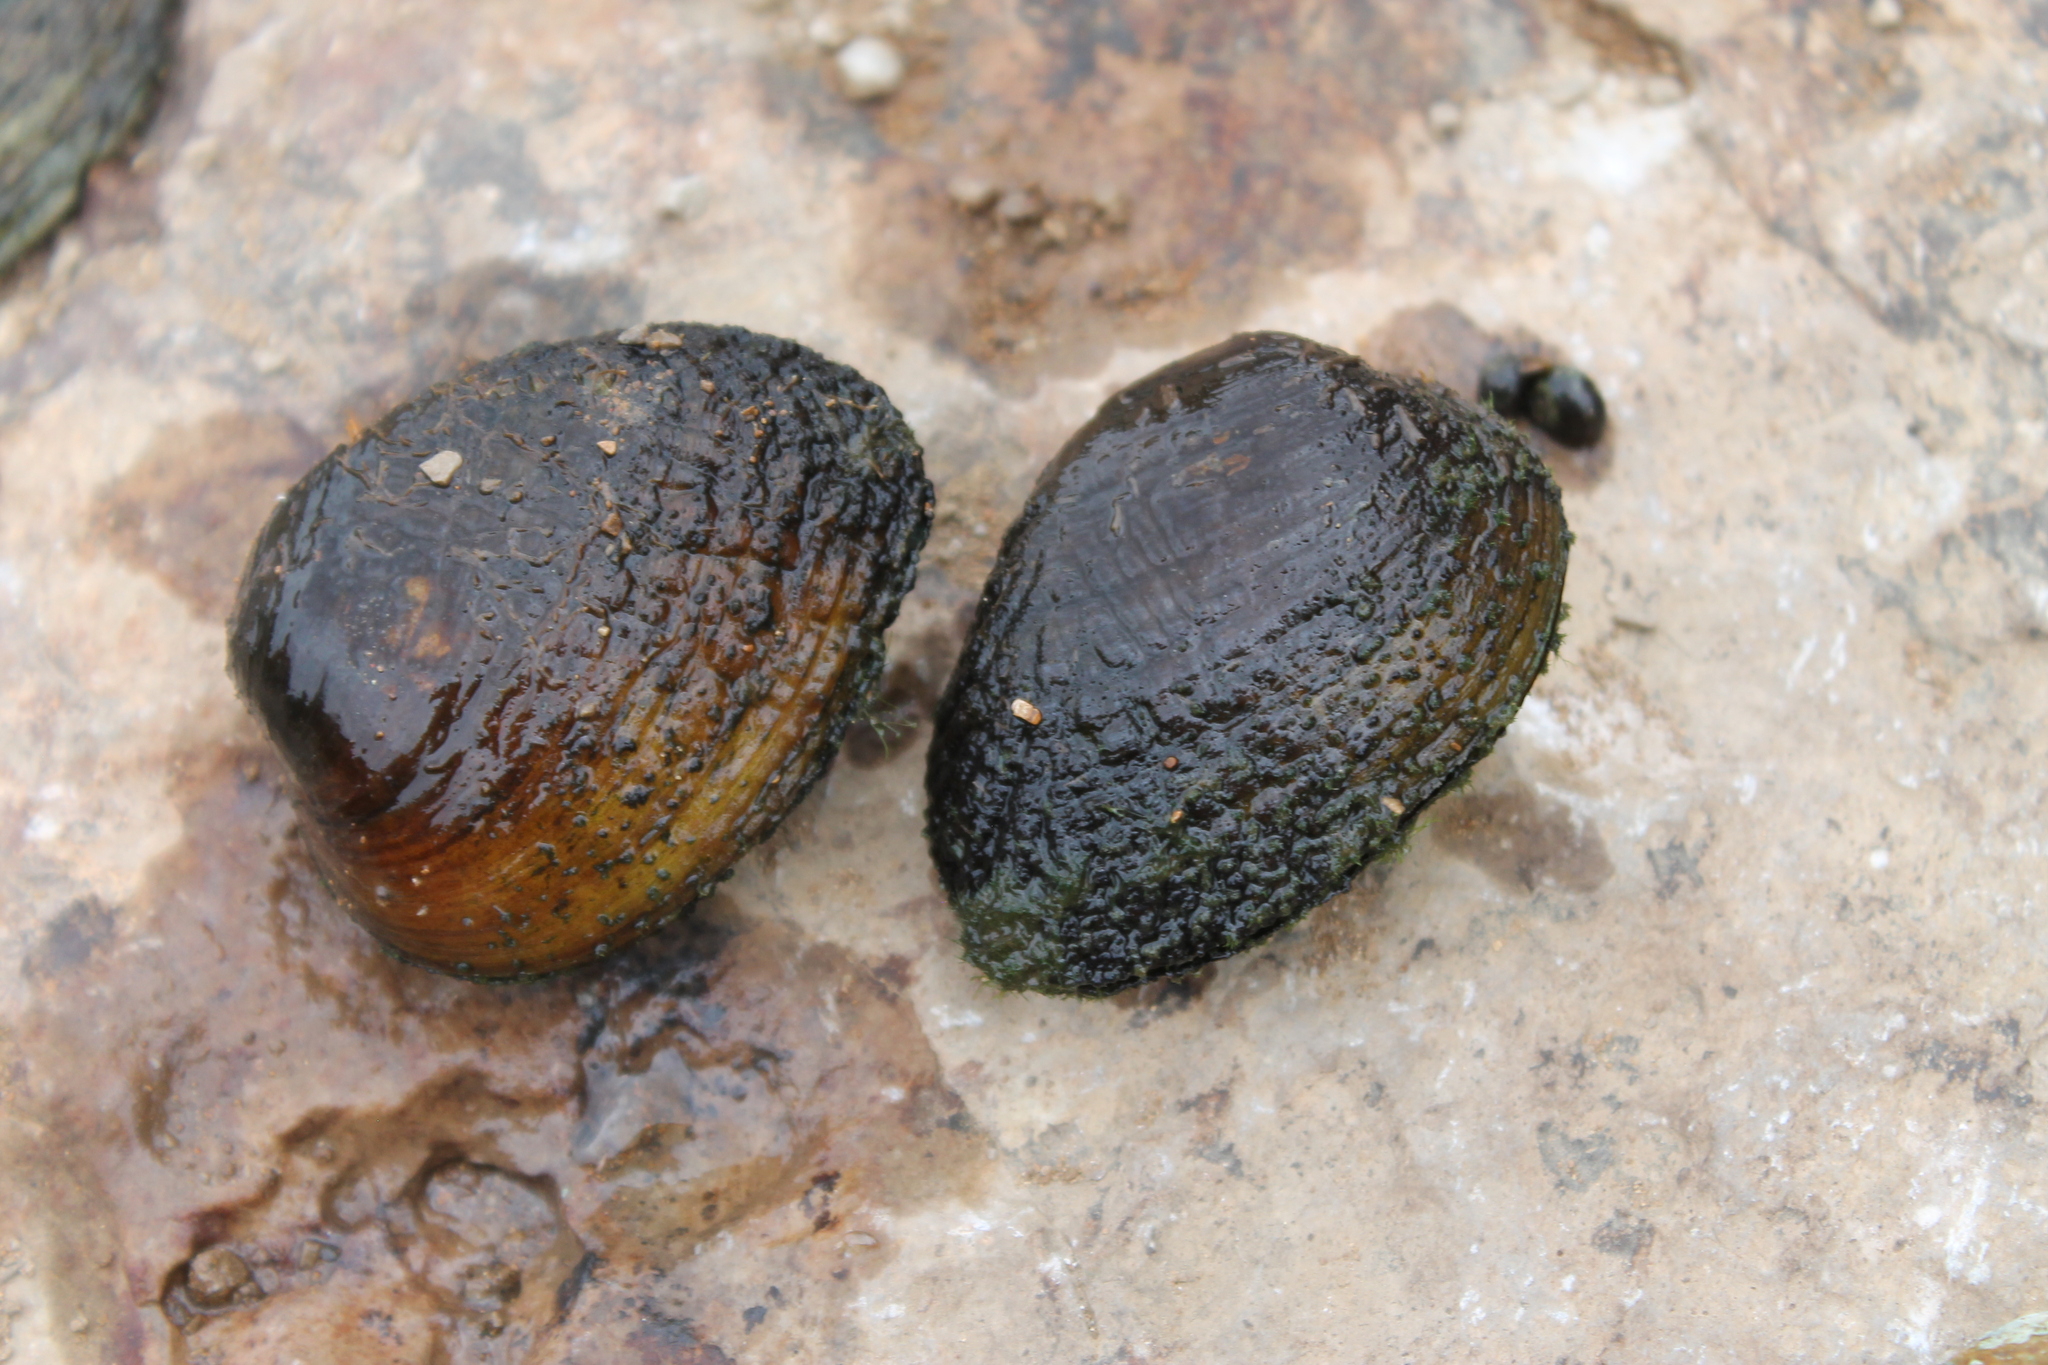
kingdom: Animalia
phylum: Mollusca
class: Bivalvia
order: Unionida
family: Unionidae
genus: Lemiox
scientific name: Lemiox rimosus
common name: Birdwing pearlymussel
